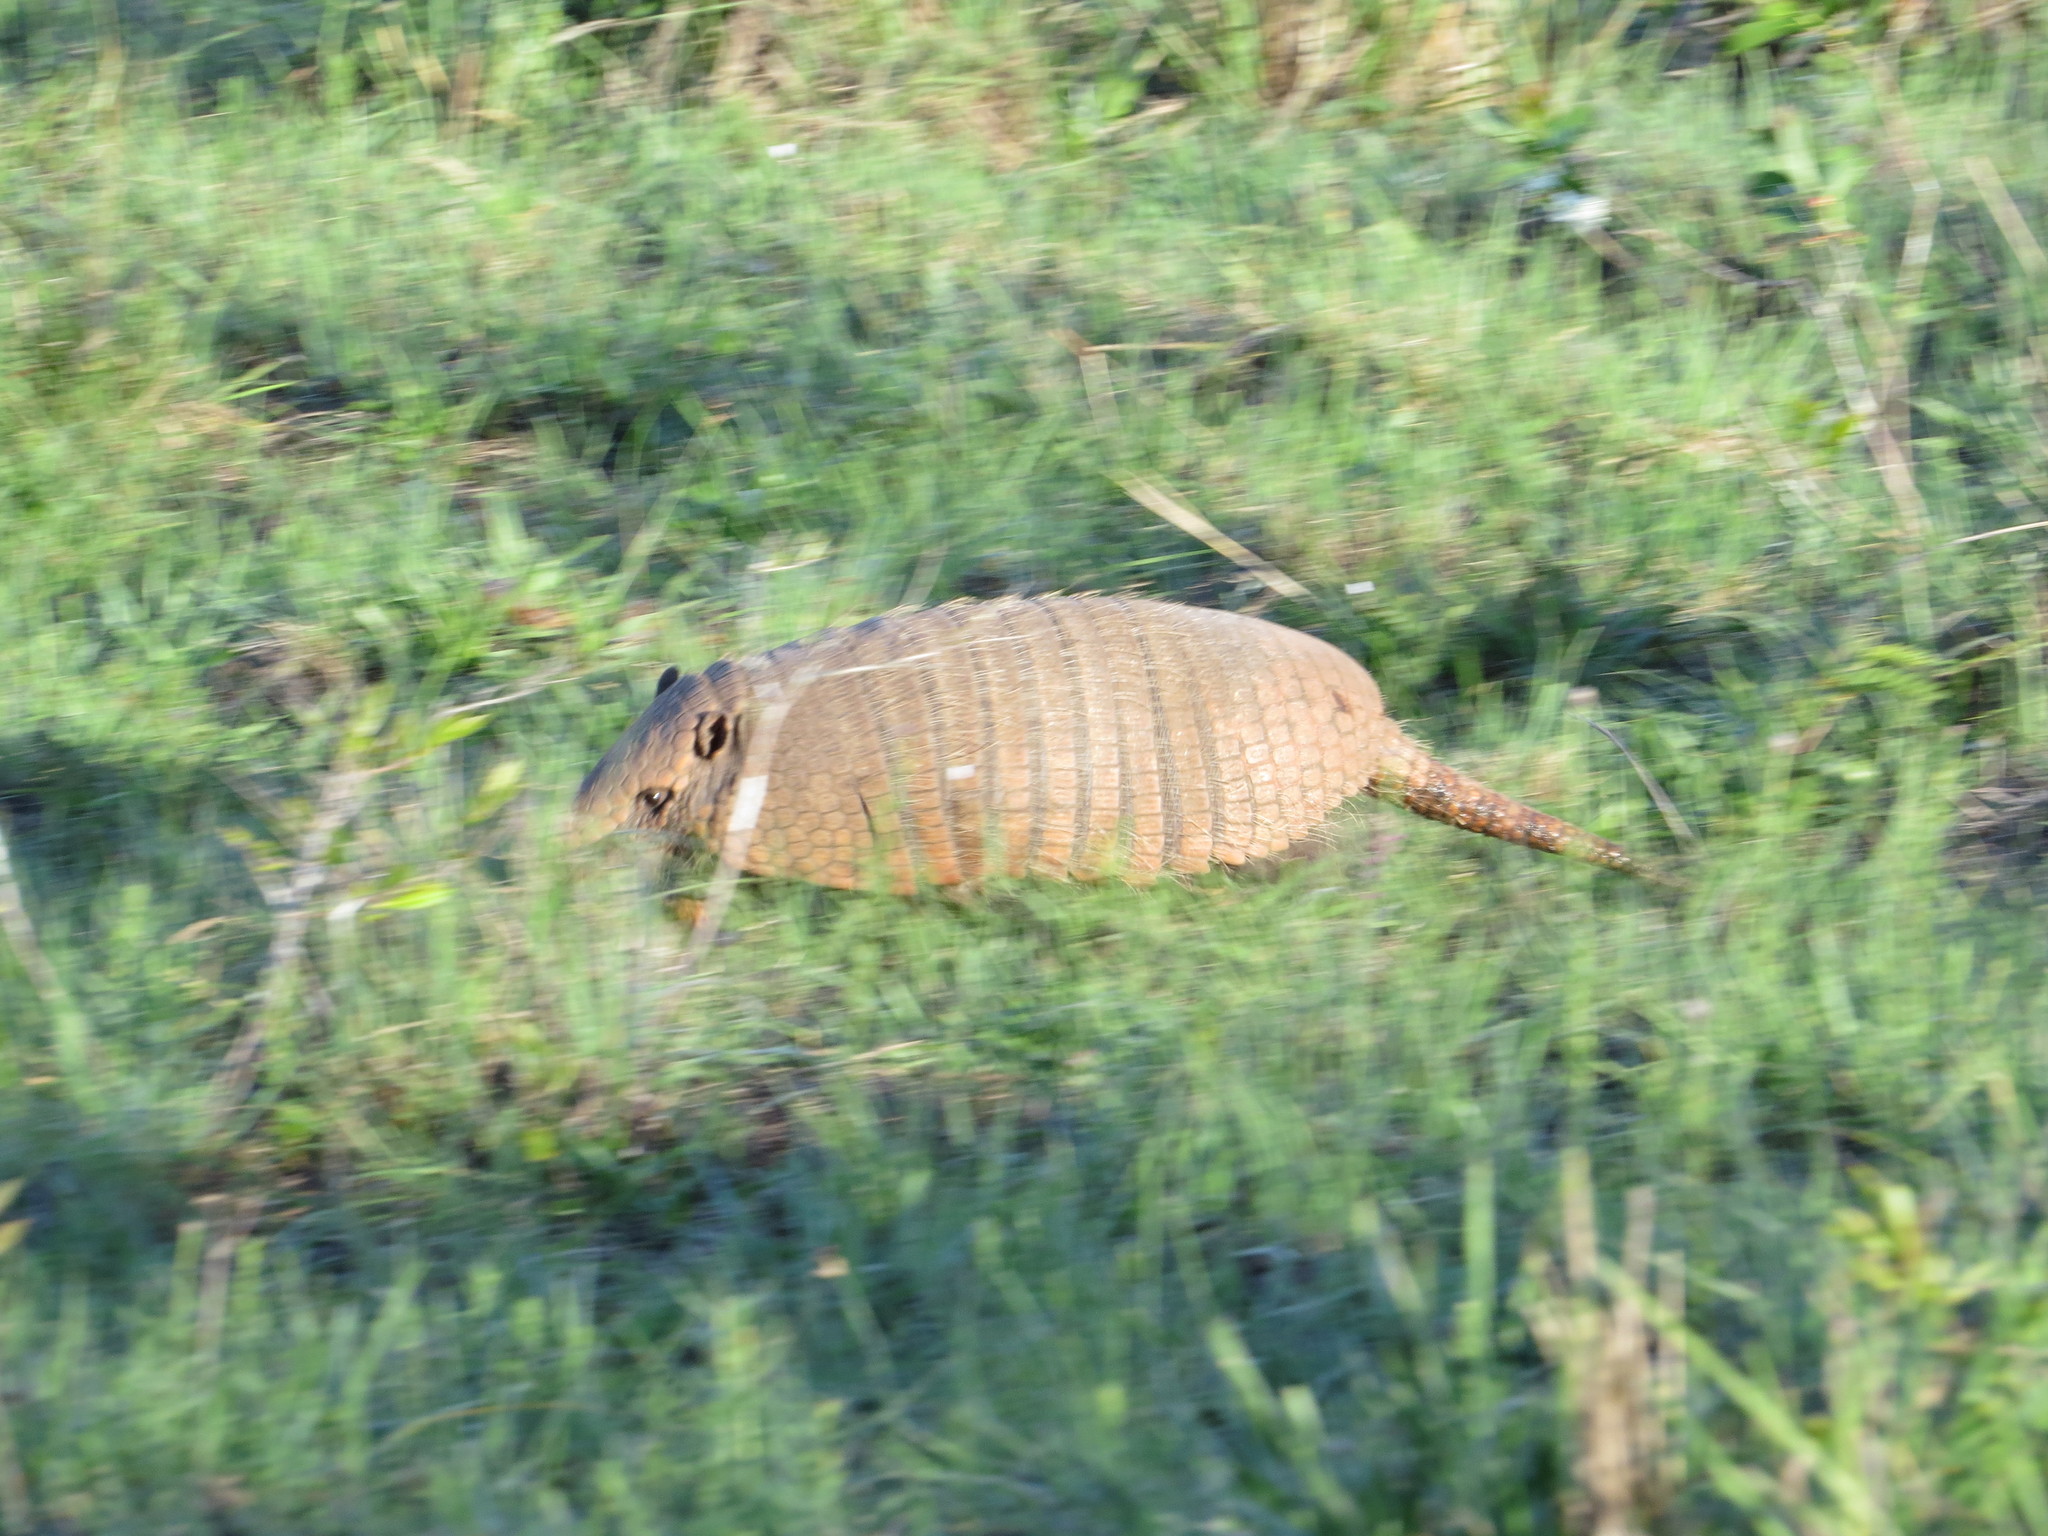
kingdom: Animalia
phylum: Chordata
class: Mammalia
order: Cingulata
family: Dasypodidae
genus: Euphractus
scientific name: Euphractus sexcinctus
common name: Six-banded armadillo
